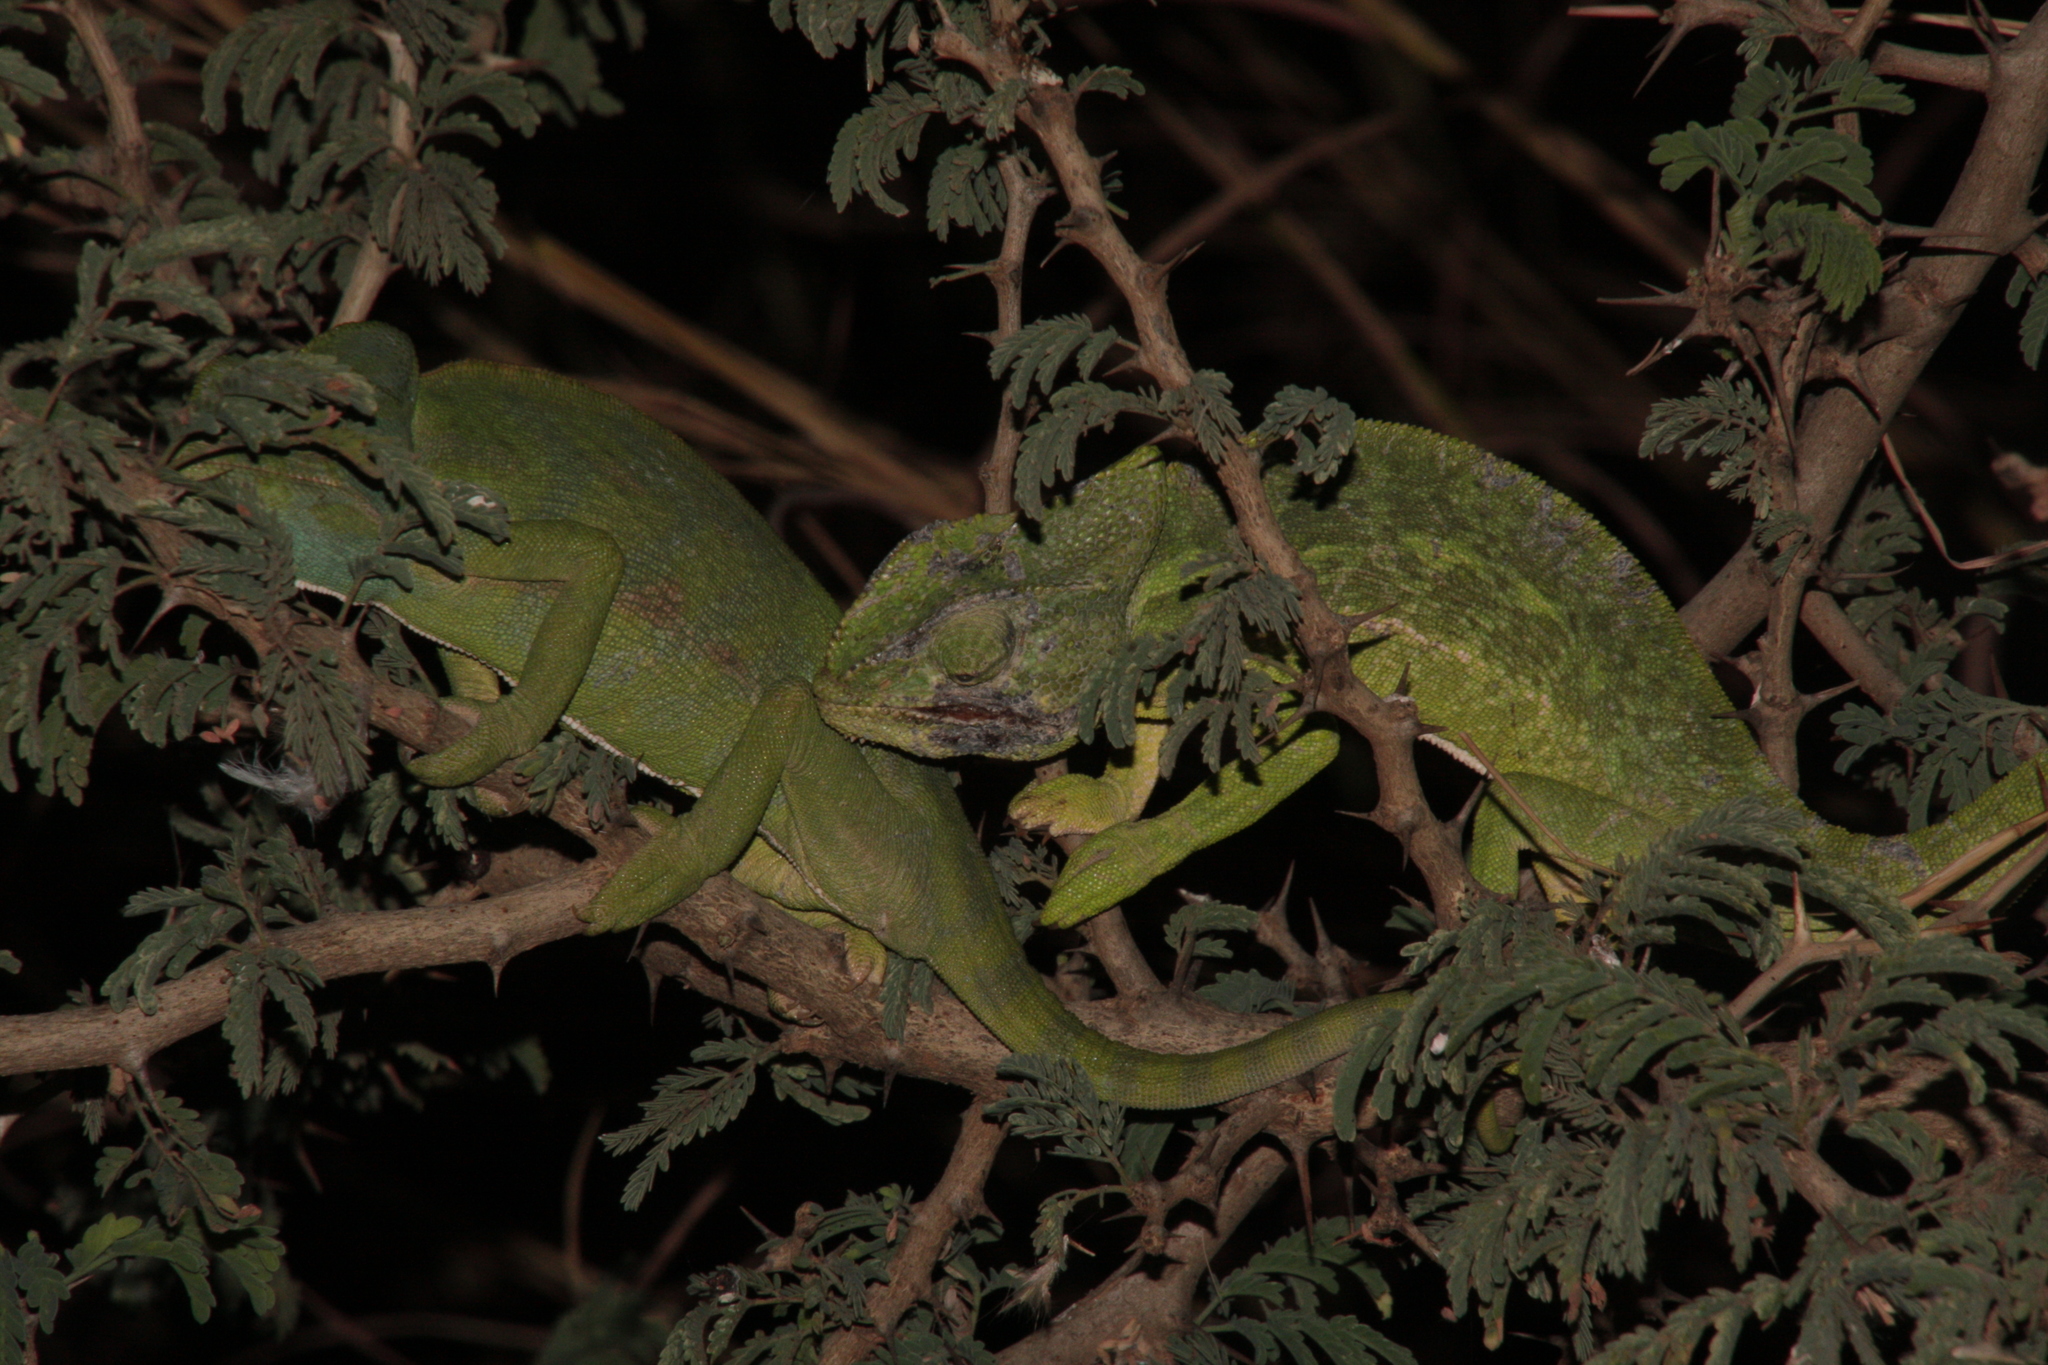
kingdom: Animalia
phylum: Chordata
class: Squamata
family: Chamaeleonidae
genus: Chamaeleo
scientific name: Chamaeleo africanus
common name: African chameleon
